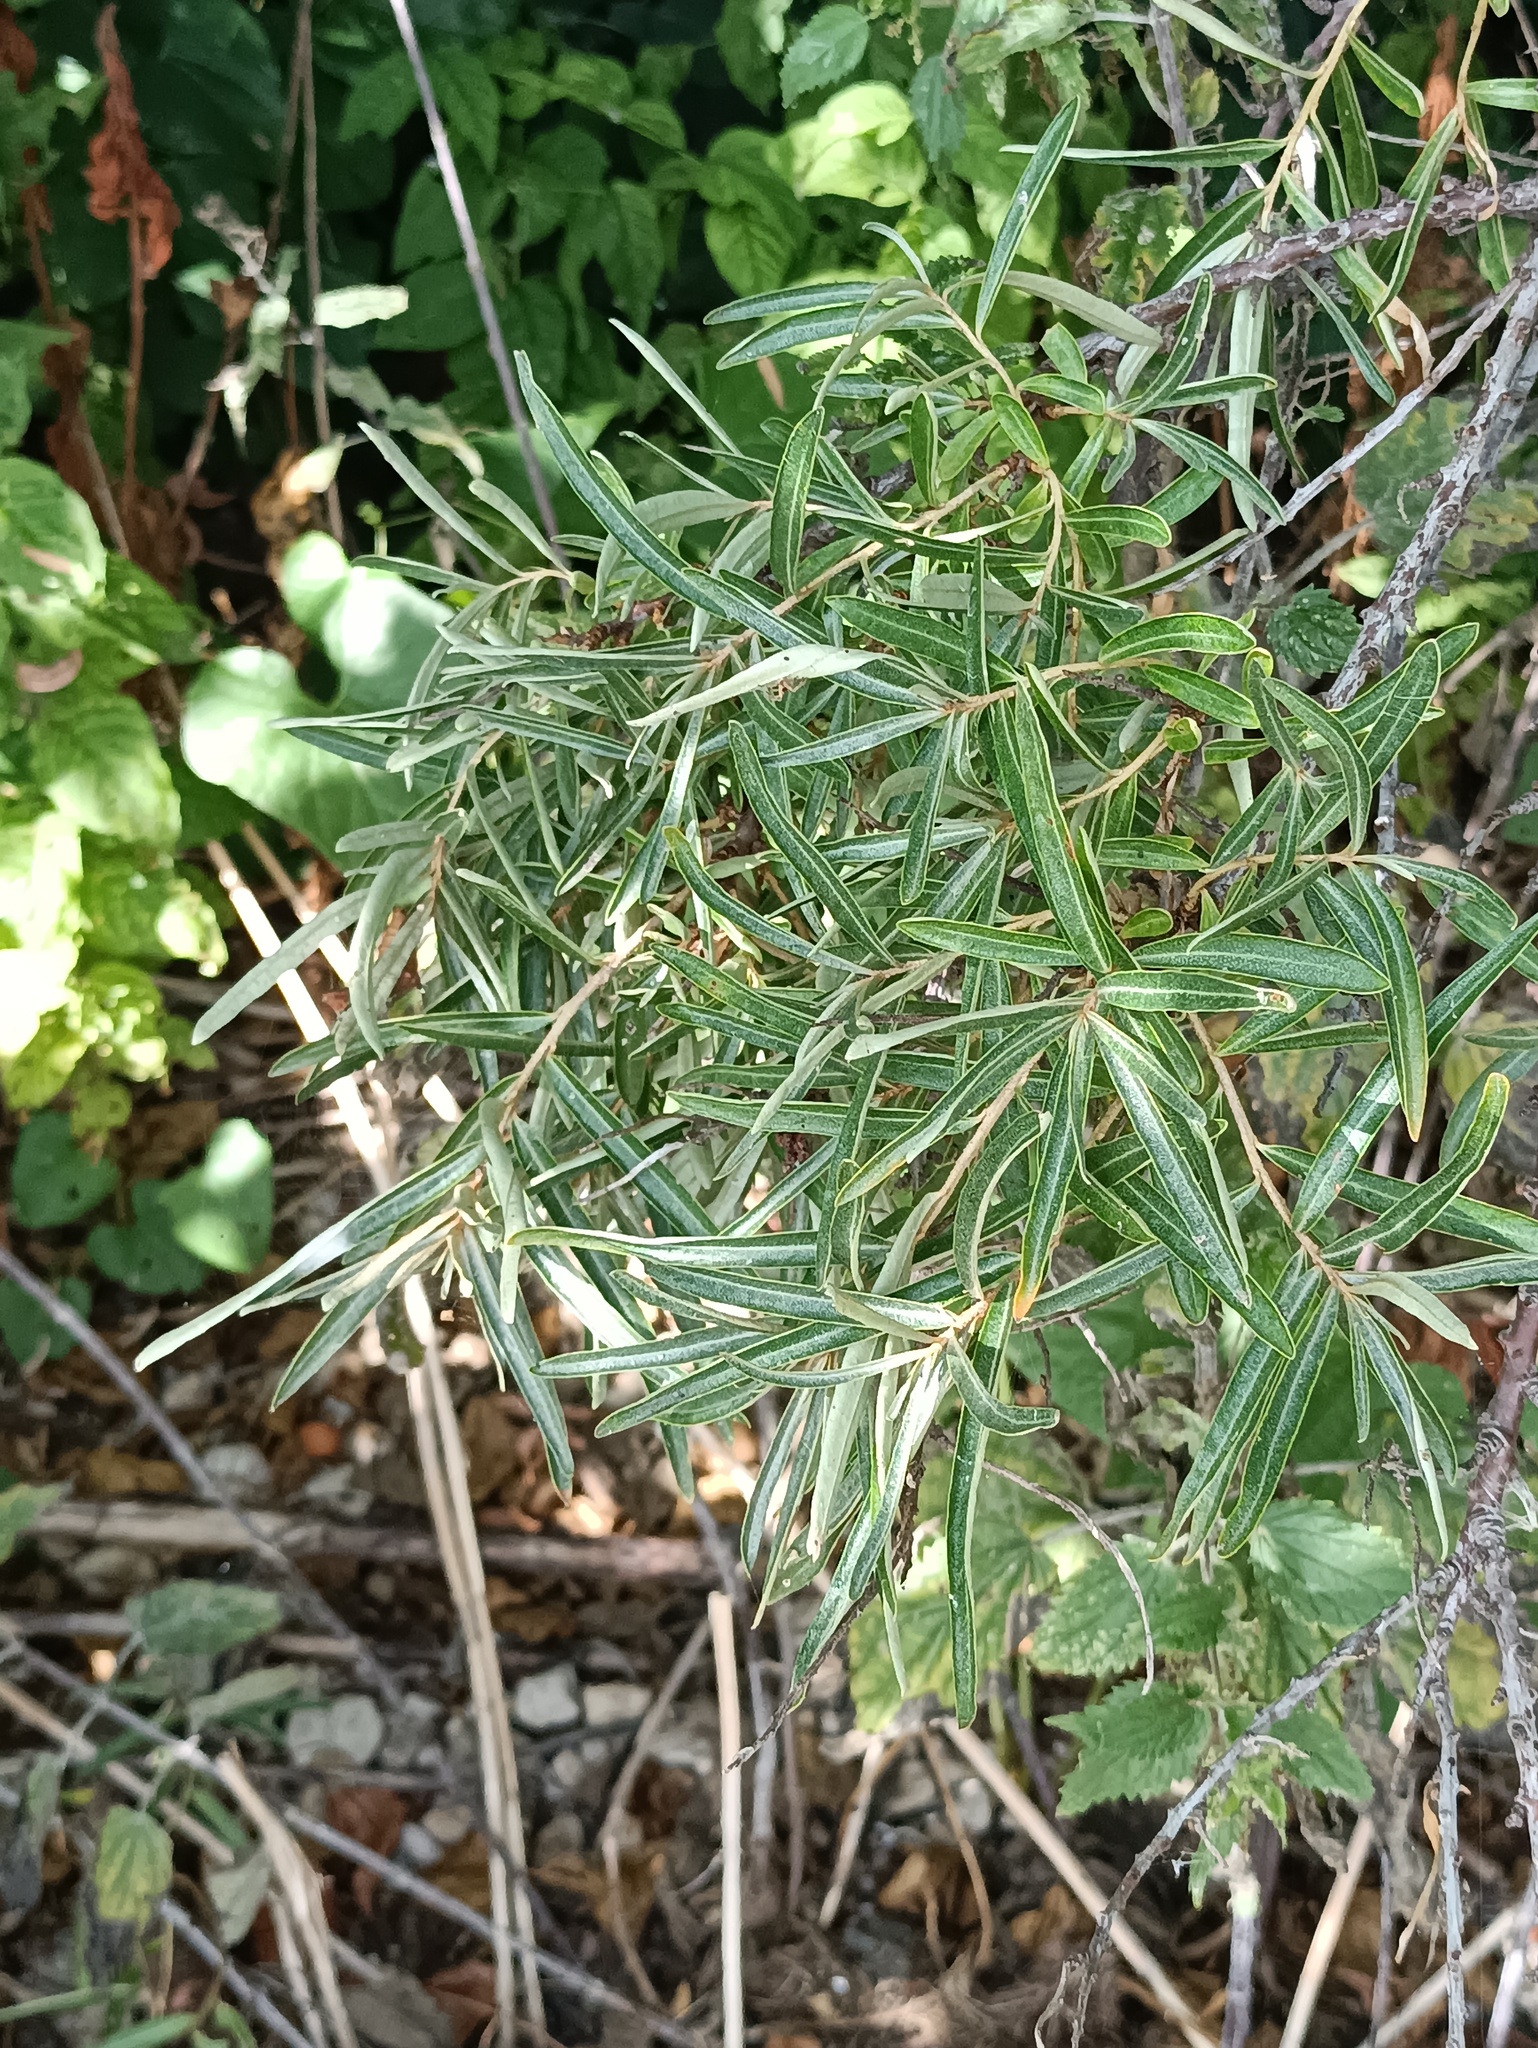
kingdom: Plantae
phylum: Tracheophyta
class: Magnoliopsida
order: Rosales
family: Elaeagnaceae
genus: Hippophae
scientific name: Hippophae rhamnoides
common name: Sea-buckthorn
